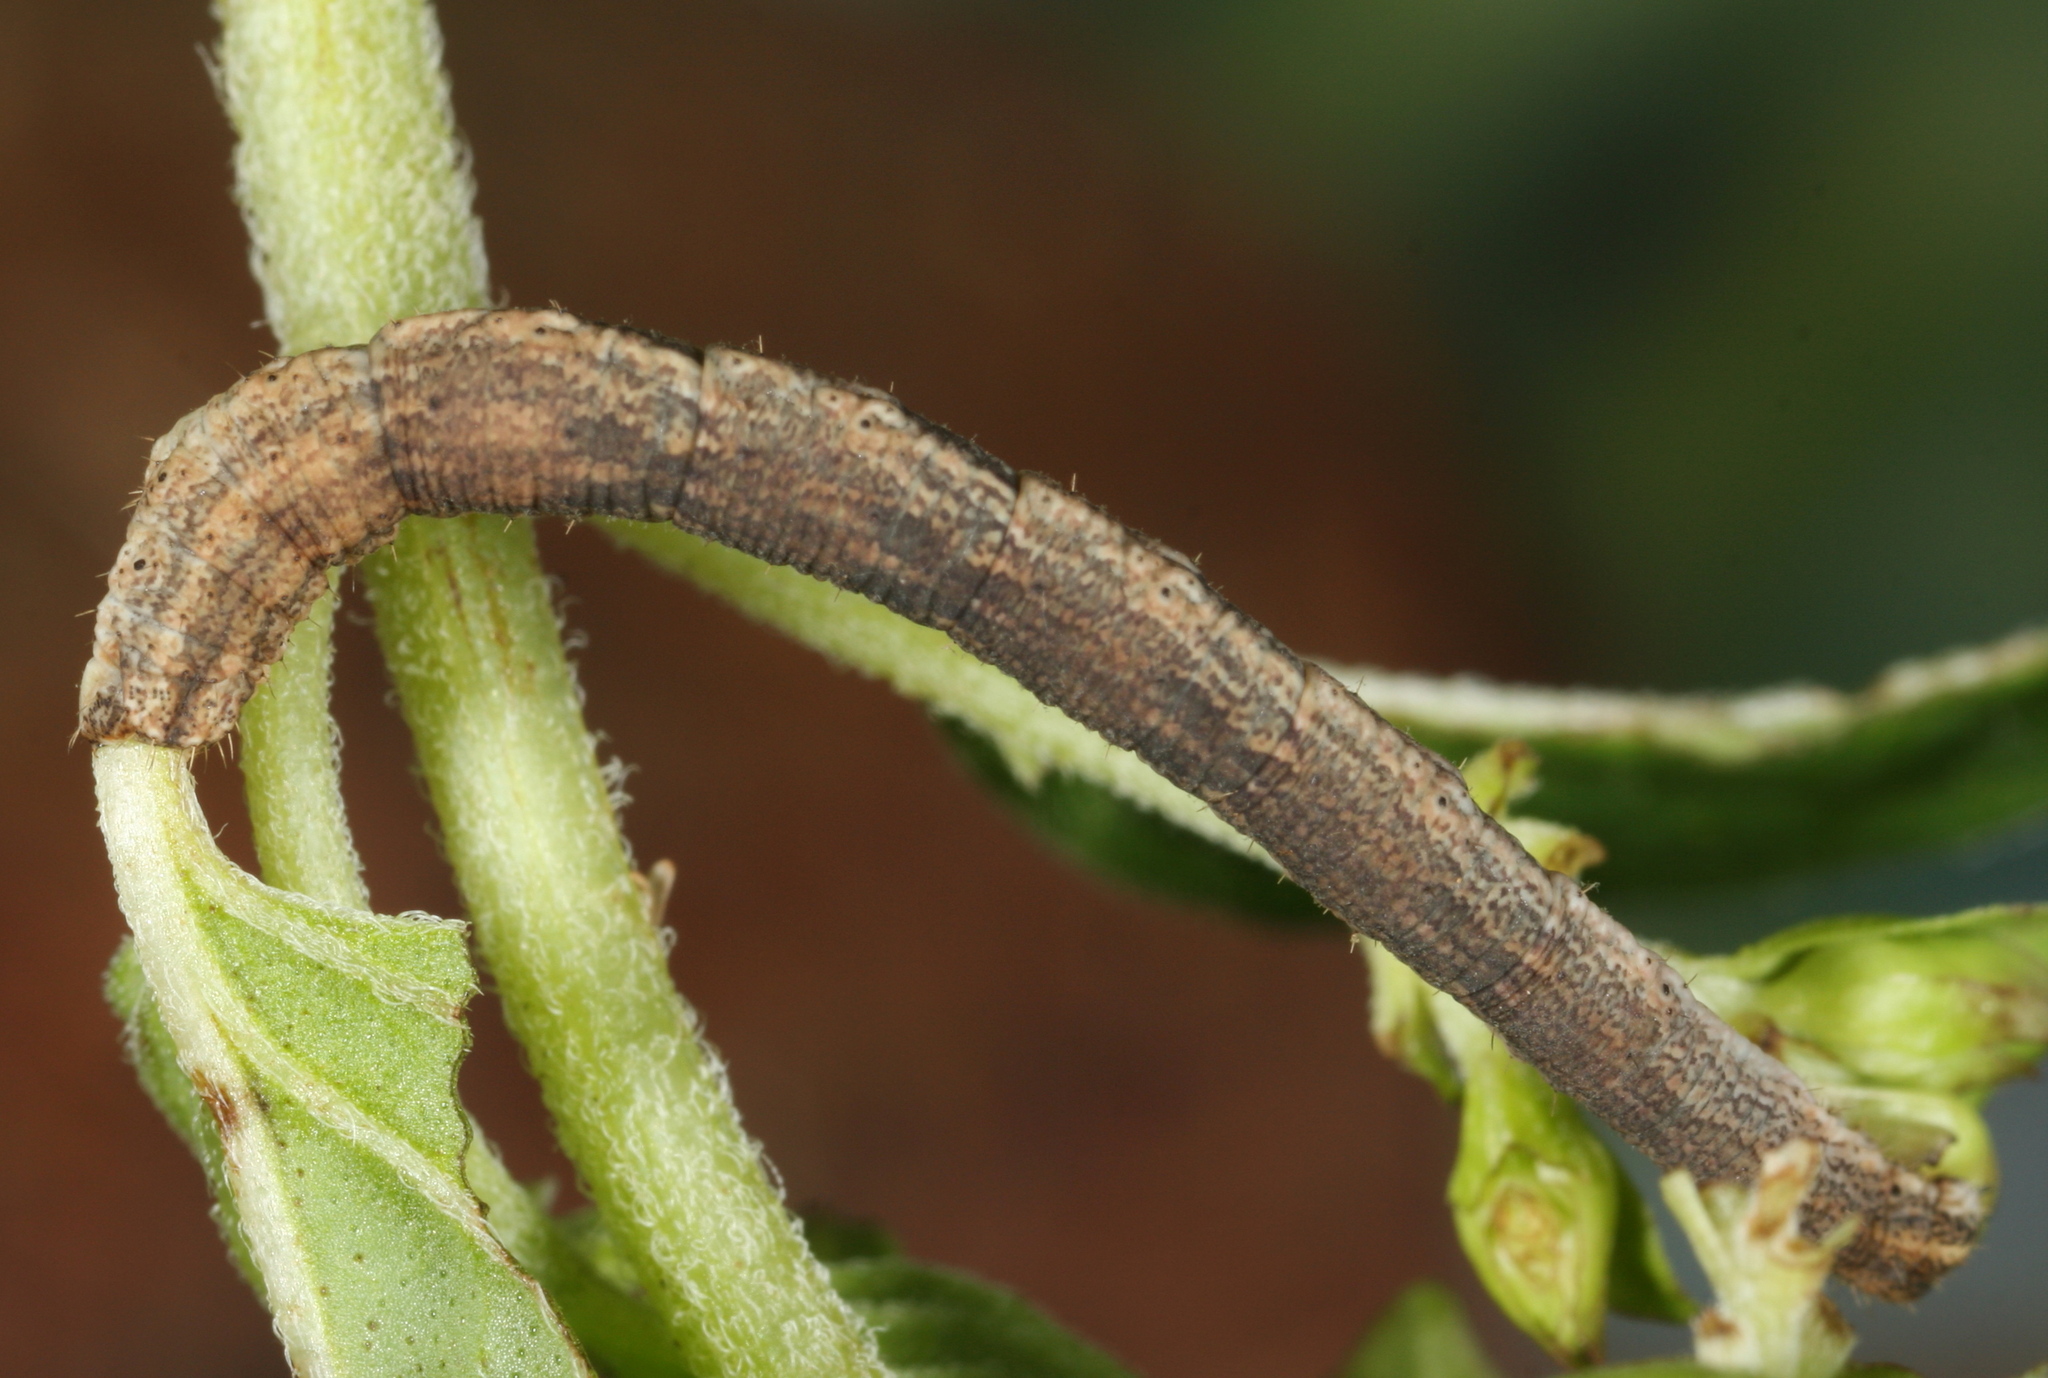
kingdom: Animalia
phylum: Arthropoda
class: Insecta
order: Lepidoptera
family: Geometridae
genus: Scopula
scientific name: Scopula ornata
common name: Lace border
